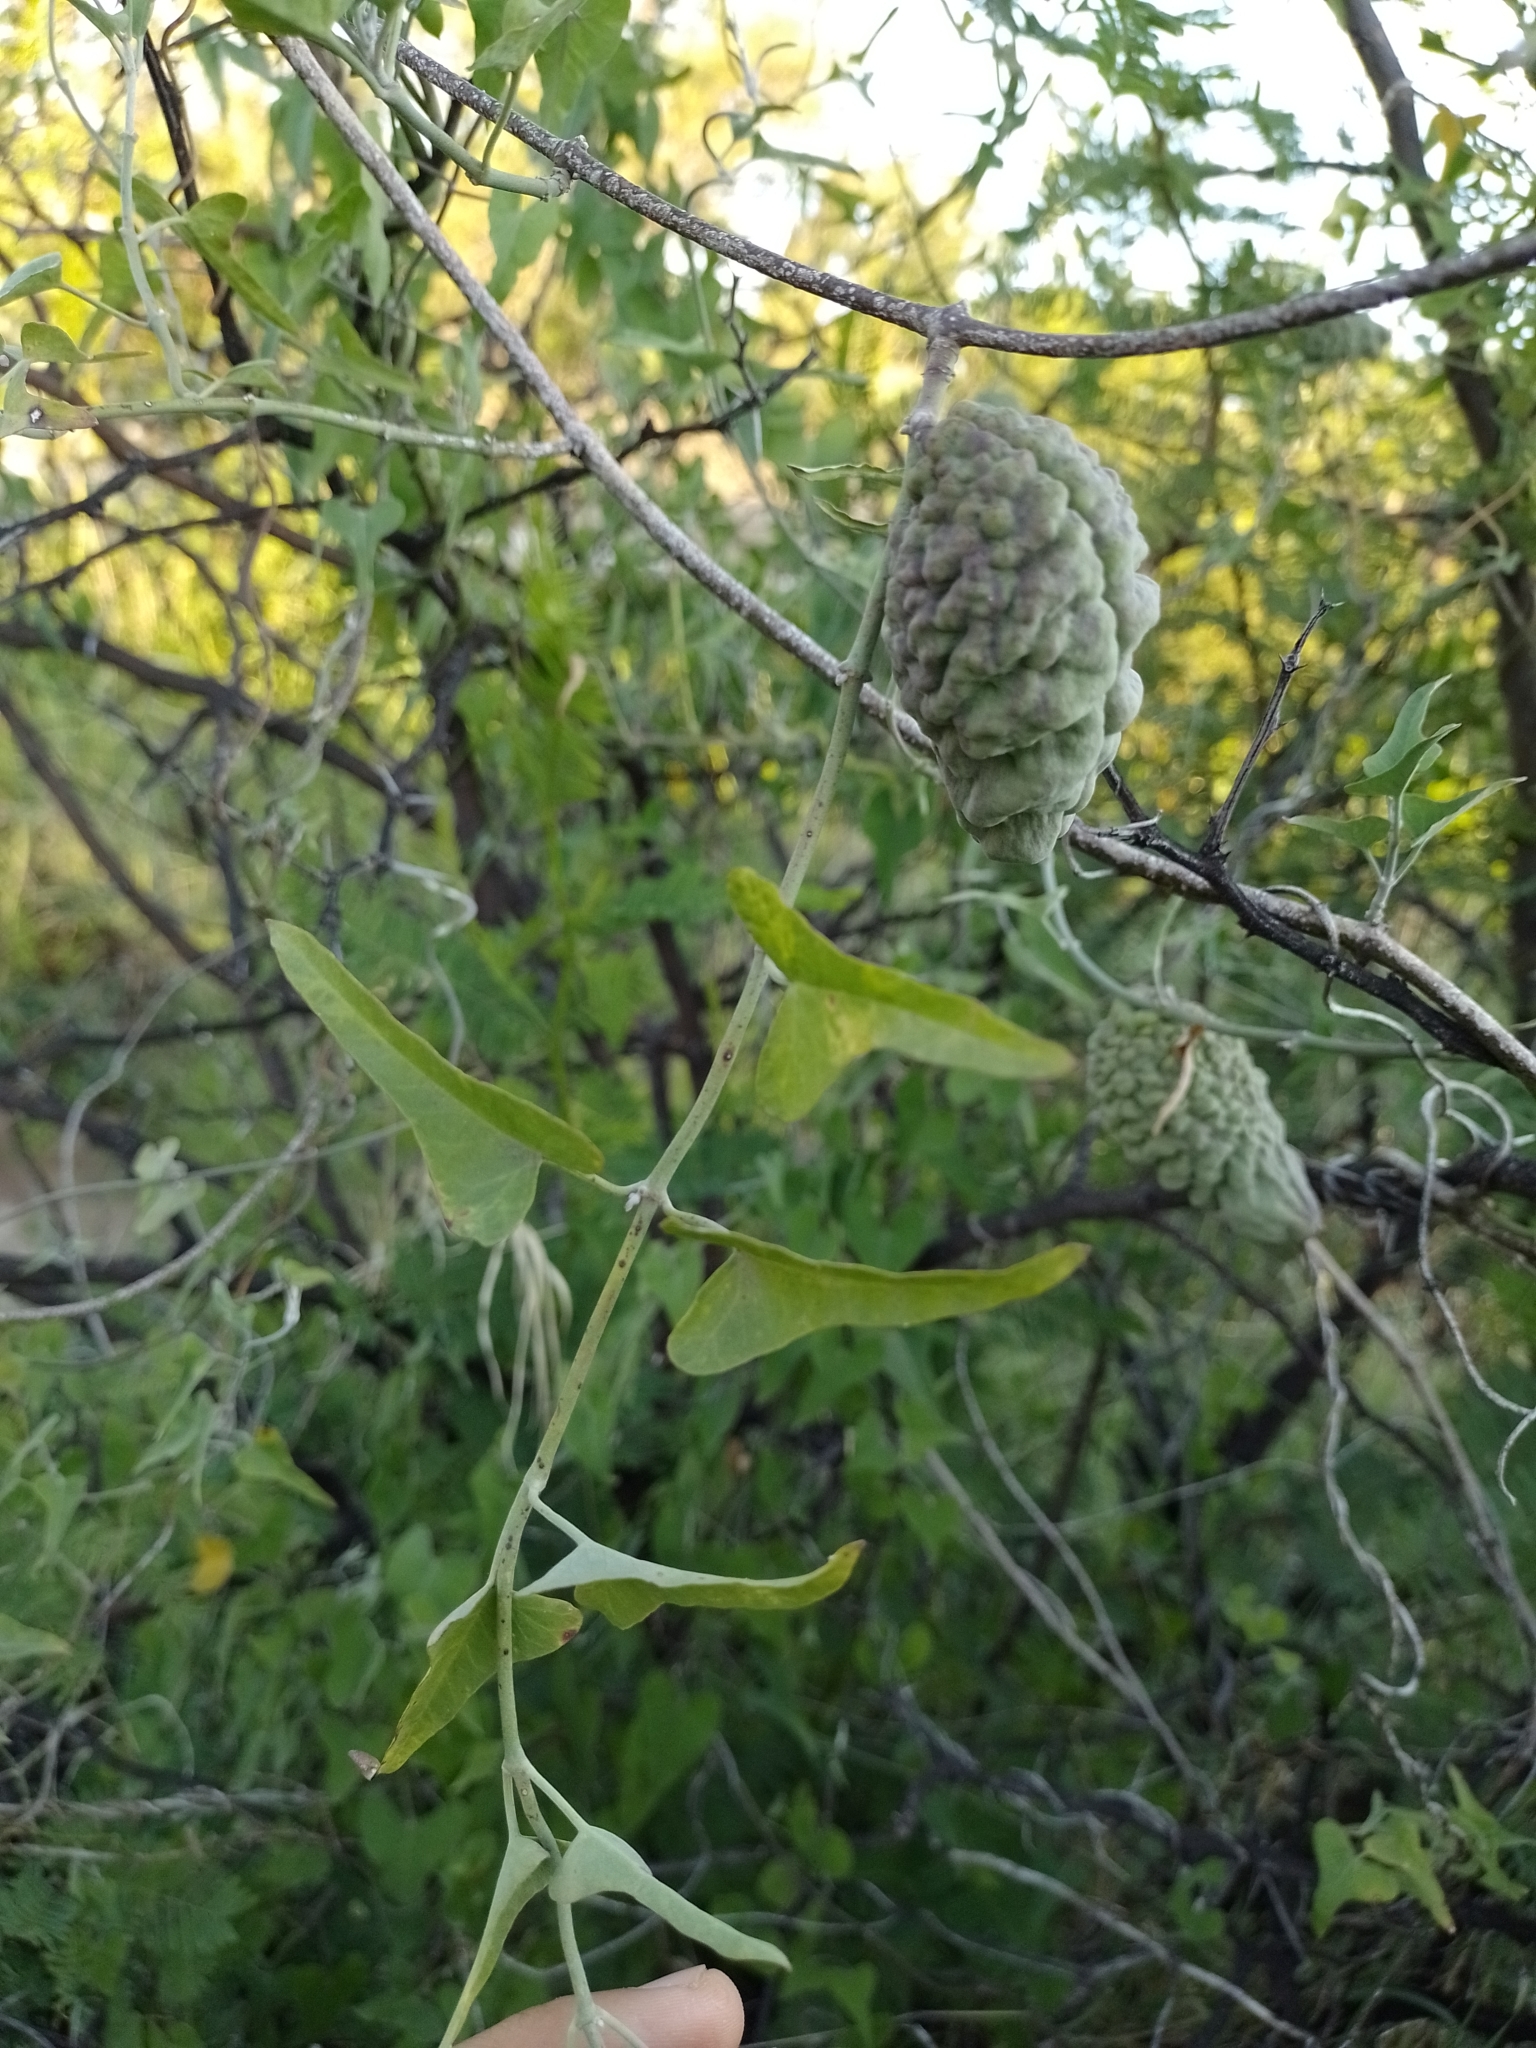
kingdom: Plantae
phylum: Tracheophyta
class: Magnoliopsida
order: Gentianales
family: Apocynaceae
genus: Araujia
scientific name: Araujia brachystephana
